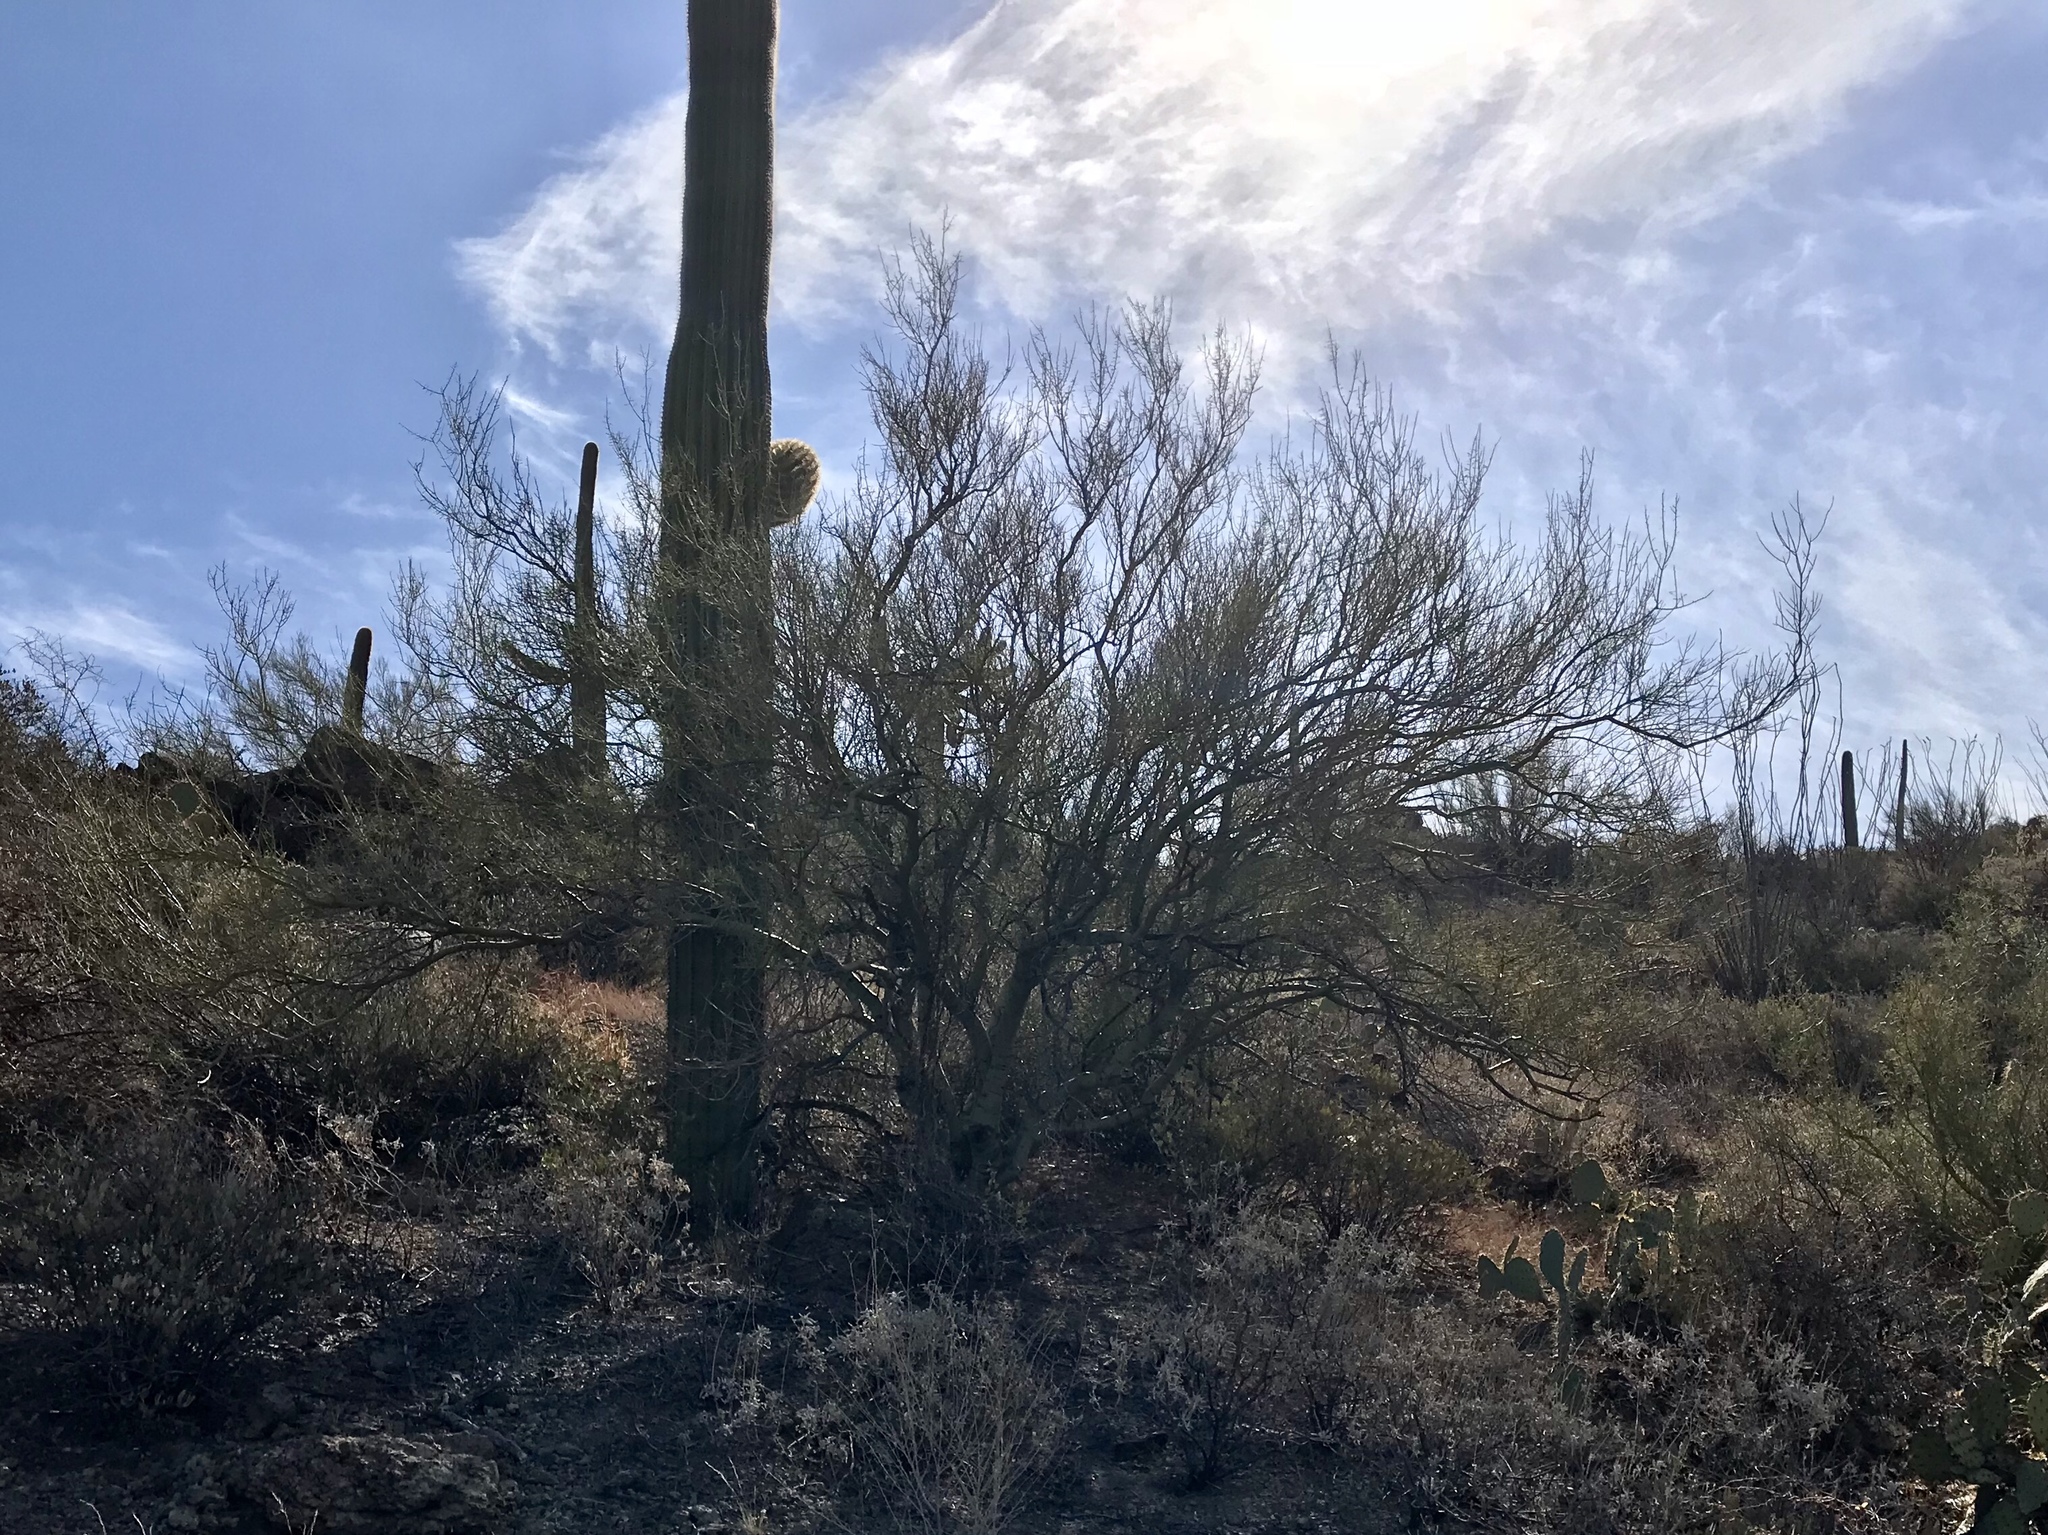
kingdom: Plantae
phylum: Tracheophyta
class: Magnoliopsida
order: Fabales
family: Fabaceae
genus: Parkinsonia
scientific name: Parkinsonia microphylla
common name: Yellow paloverde
